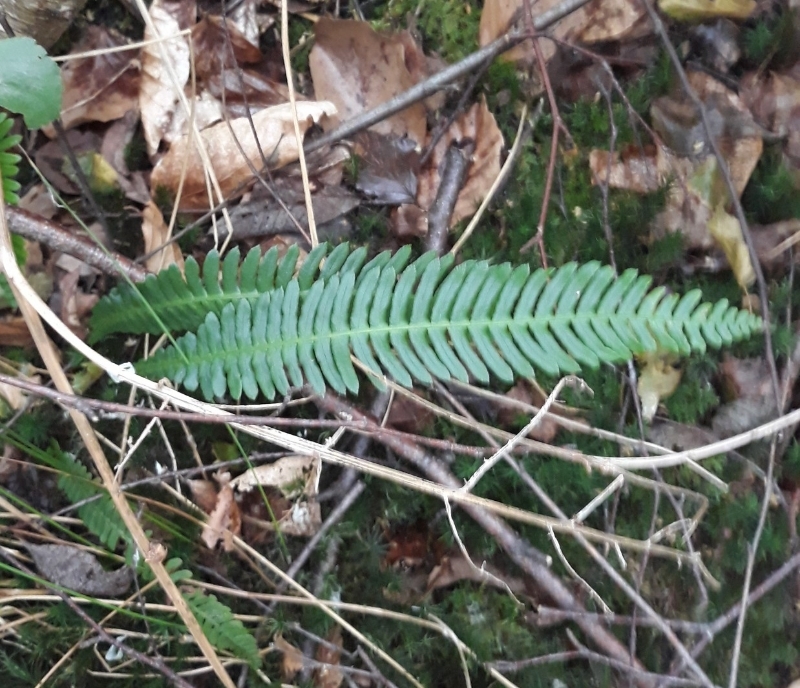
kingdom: Plantae
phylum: Tracheophyta
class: Polypodiopsida
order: Polypodiales
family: Blechnaceae
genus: Struthiopteris
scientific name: Struthiopteris spicant
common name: Deer fern
